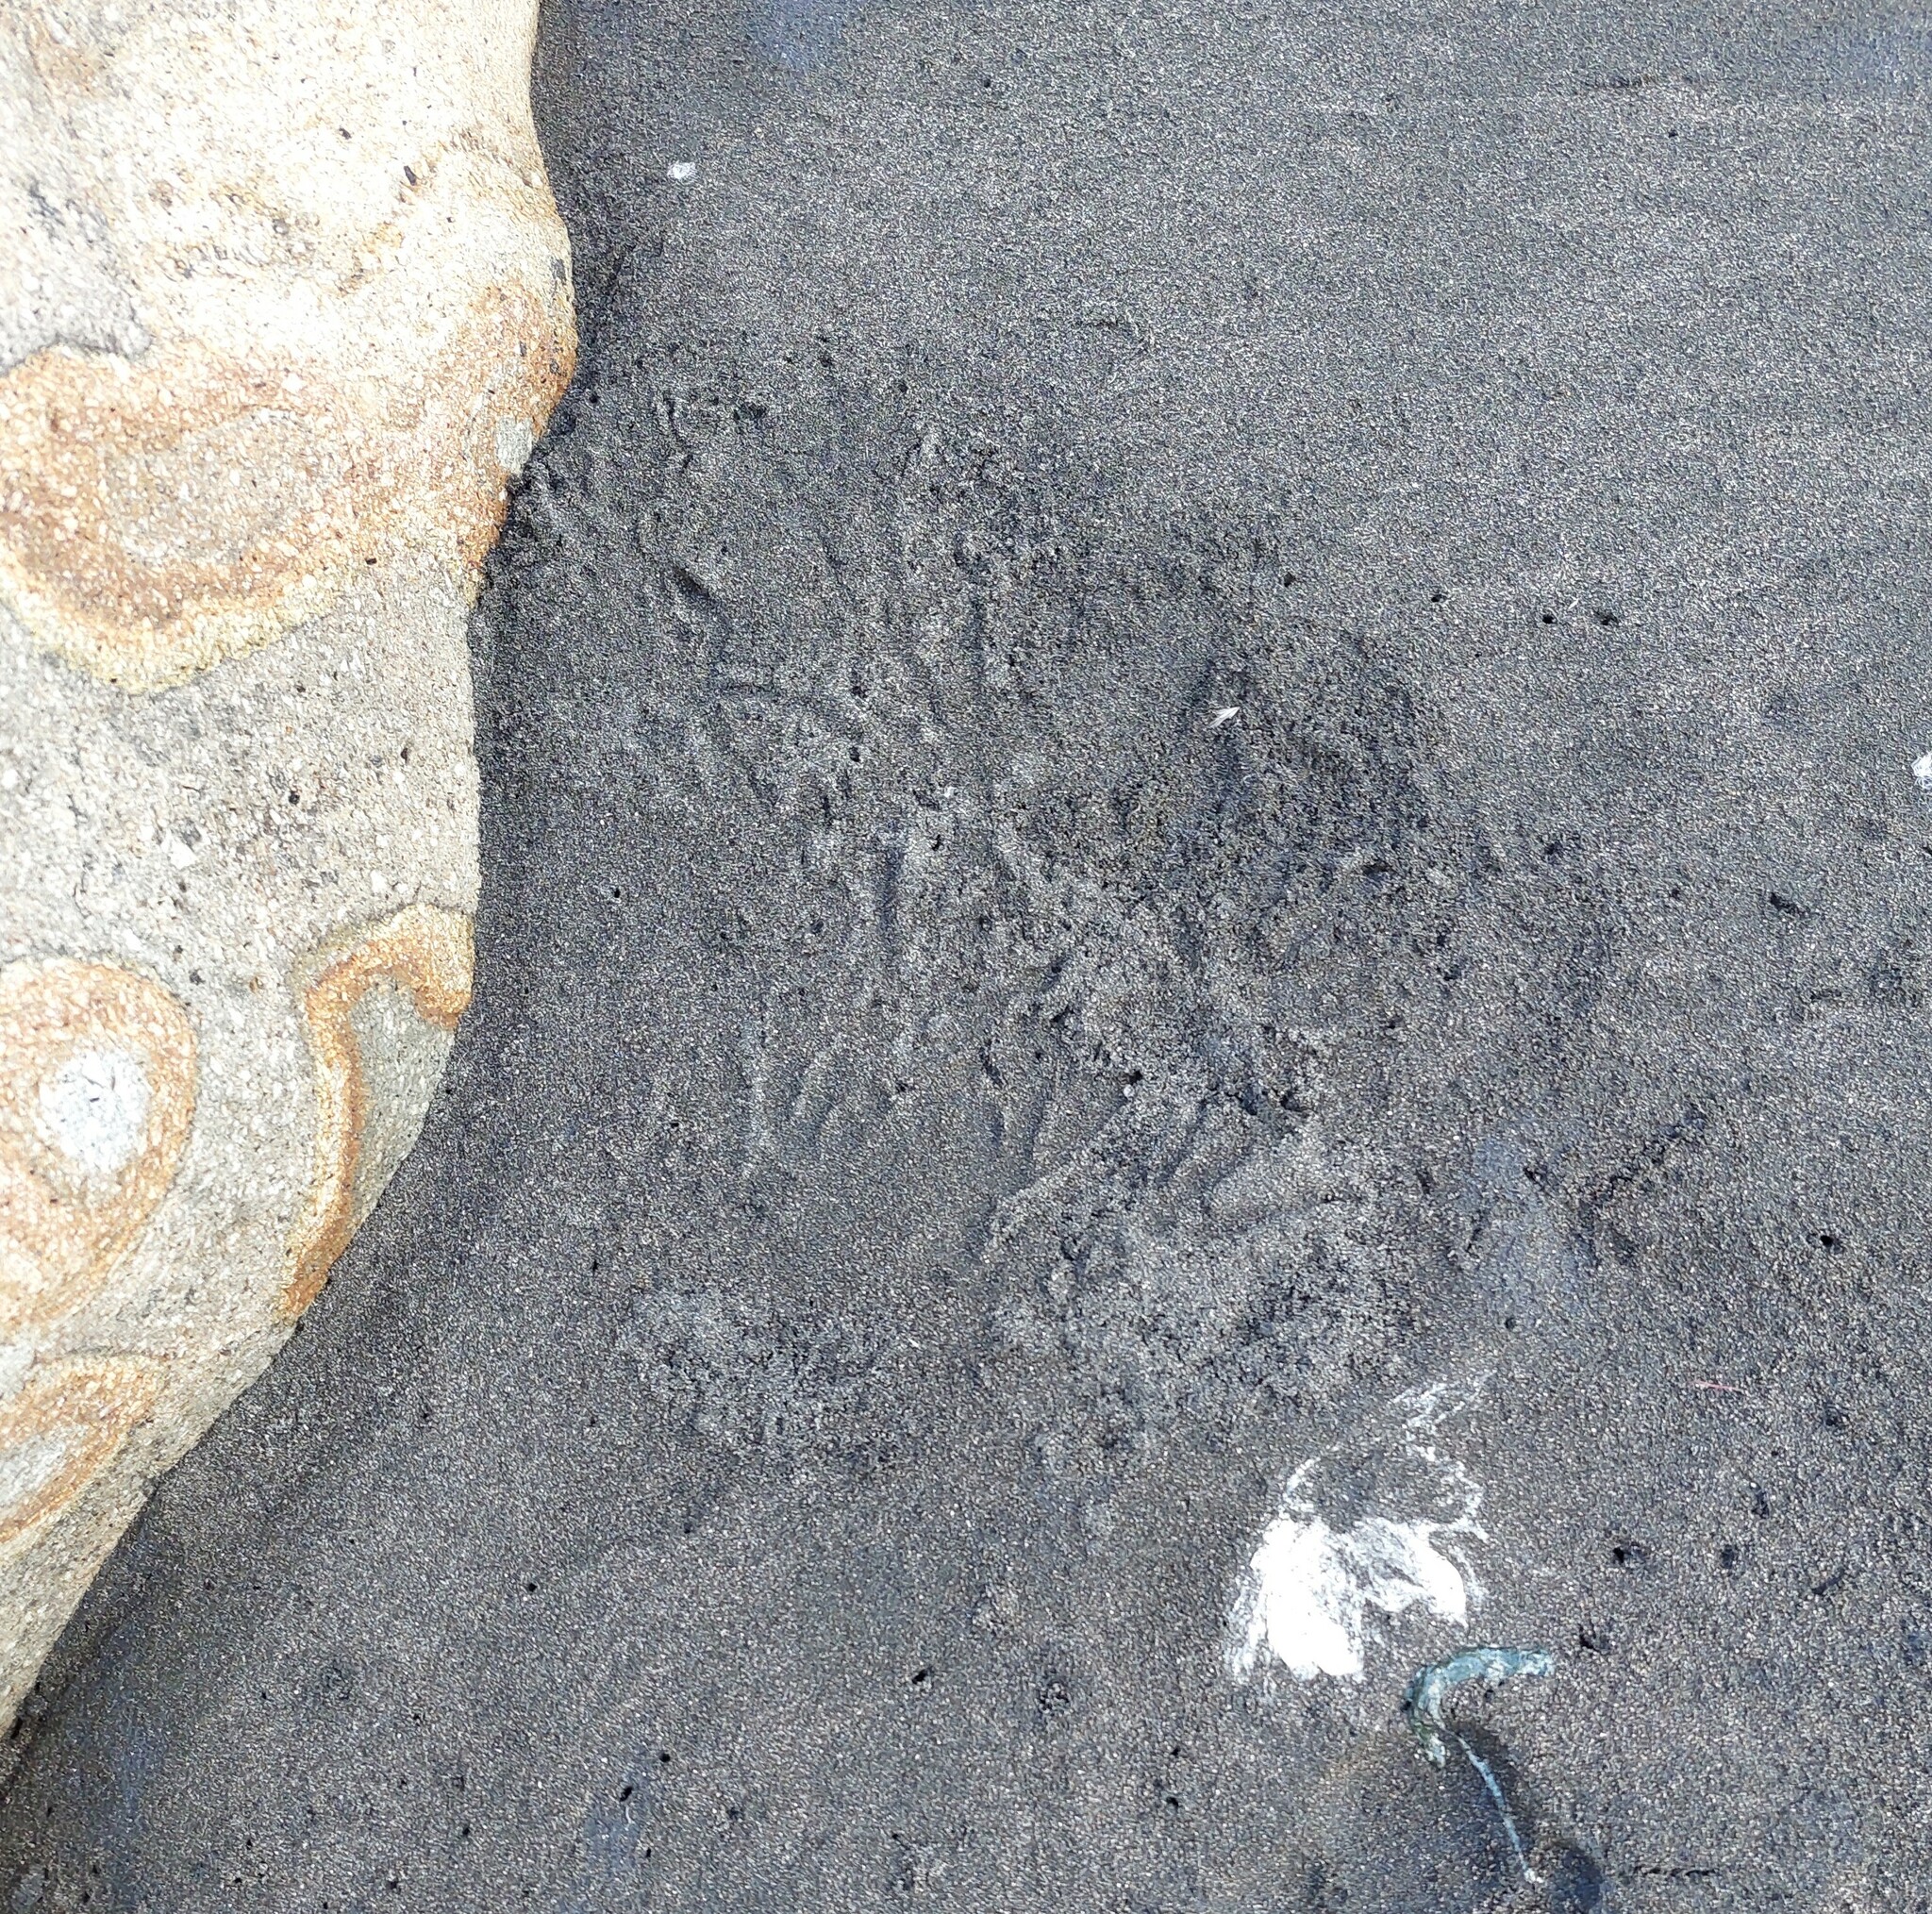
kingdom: Animalia
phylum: Chordata
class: Aves
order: Sphenisciformes
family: Spheniscidae
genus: Eudyptula
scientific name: Eudyptula minor
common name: Little penguin
